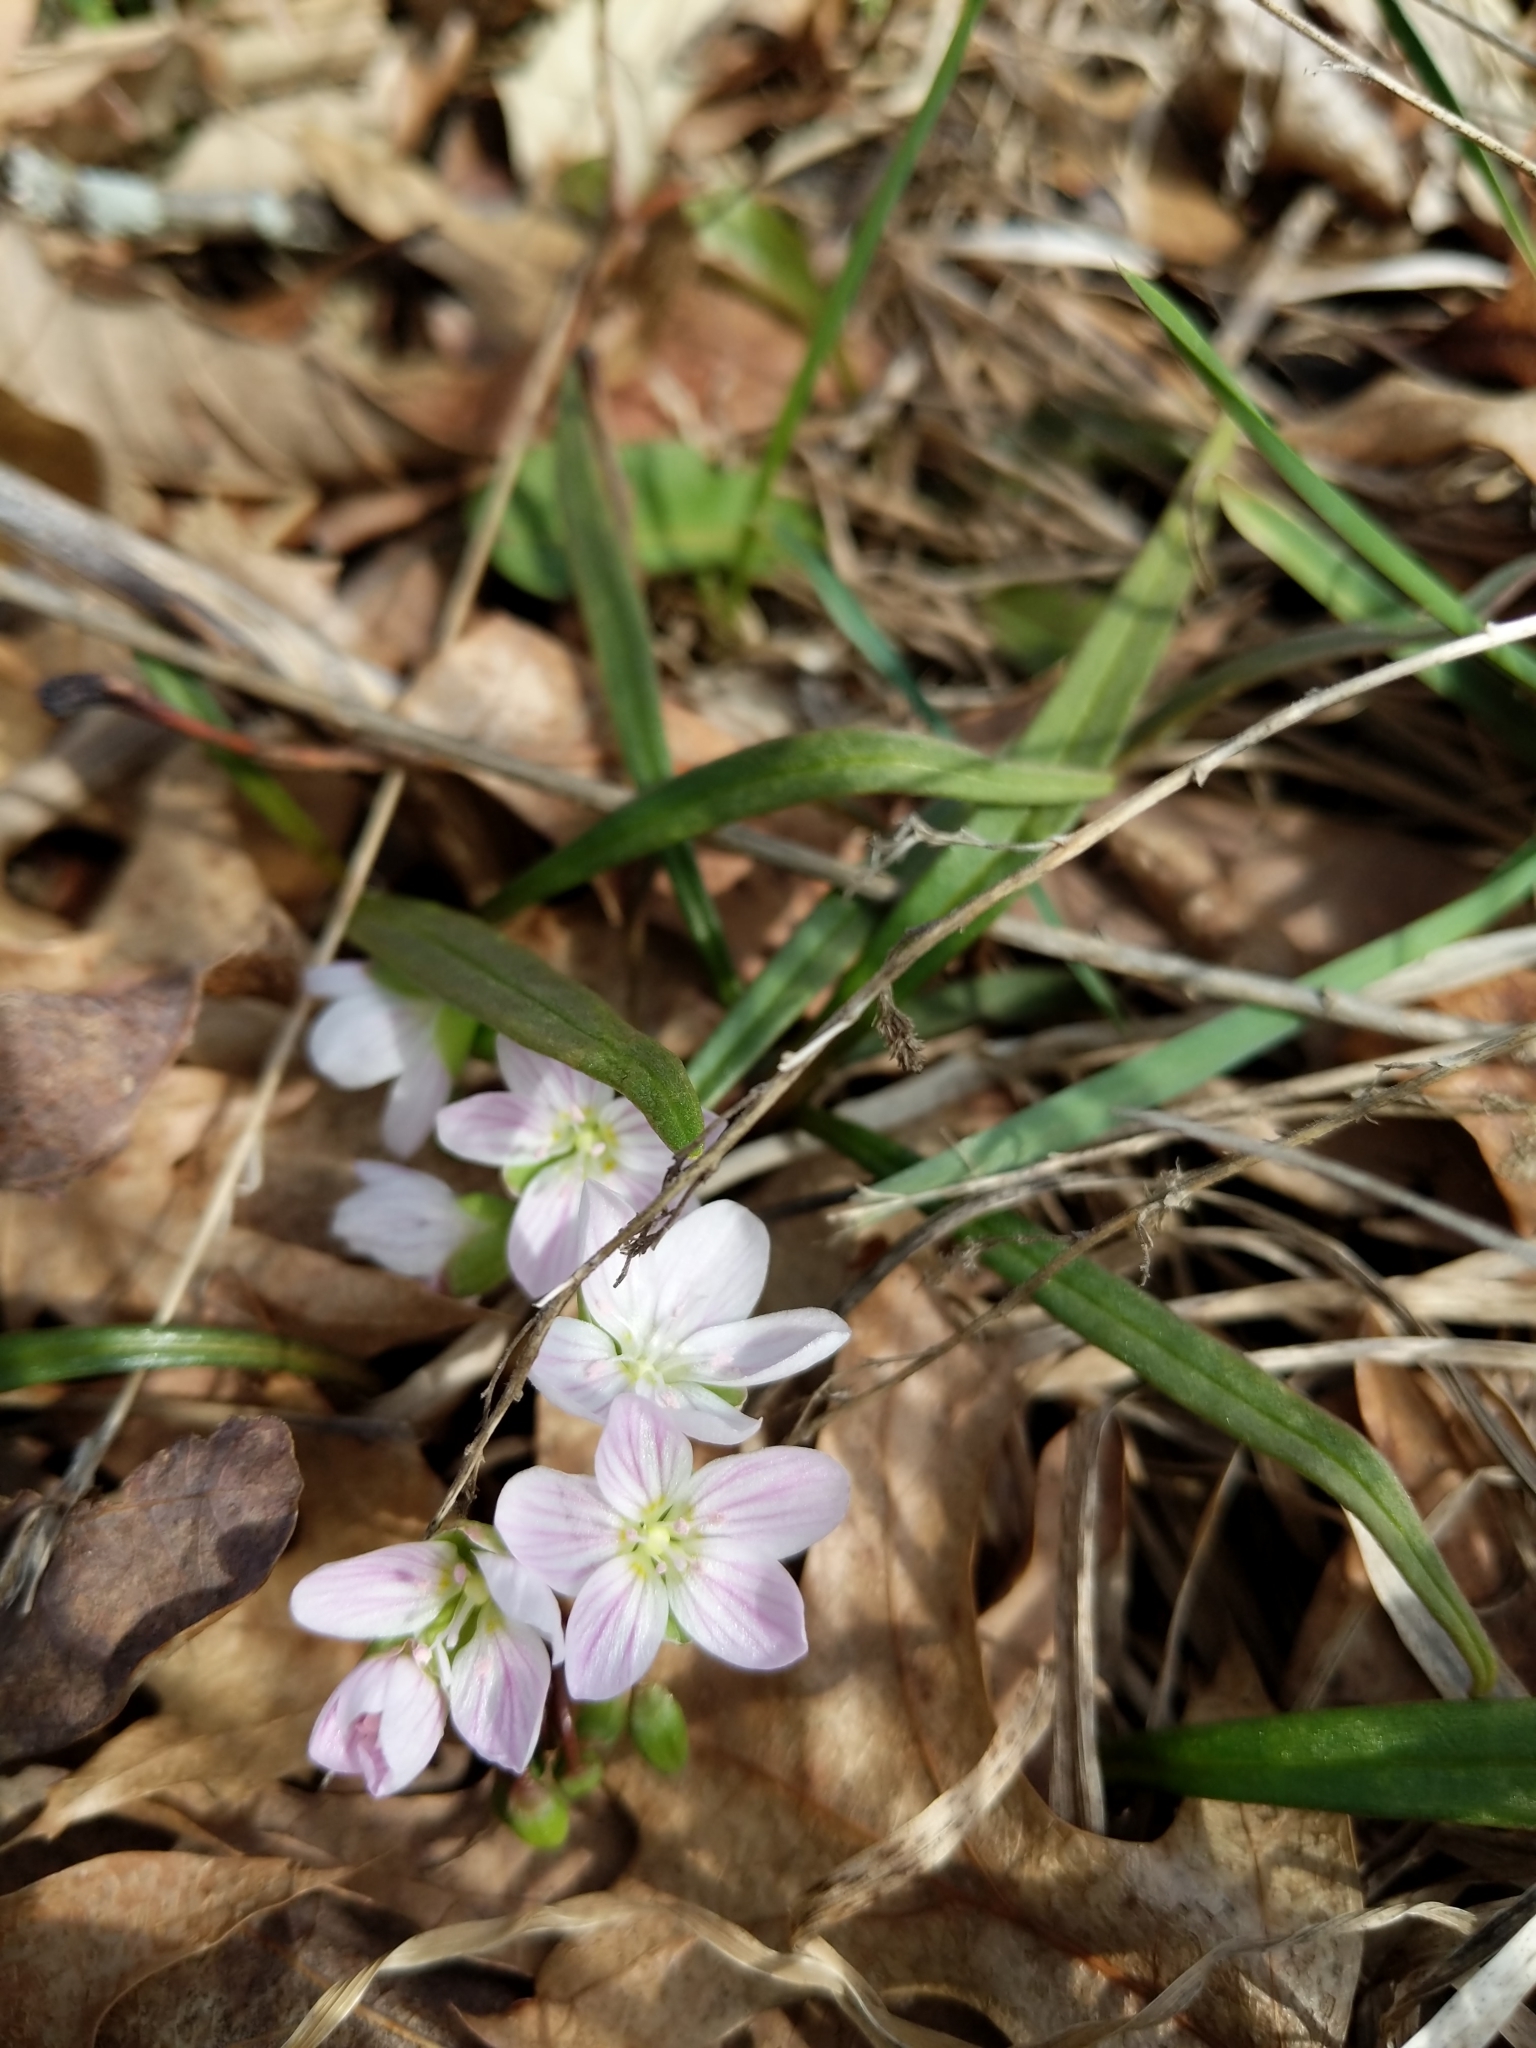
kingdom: Plantae
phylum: Tracheophyta
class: Magnoliopsida
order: Caryophyllales
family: Montiaceae
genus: Claytonia
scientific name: Claytonia virginica
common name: Virginia springbeauty
